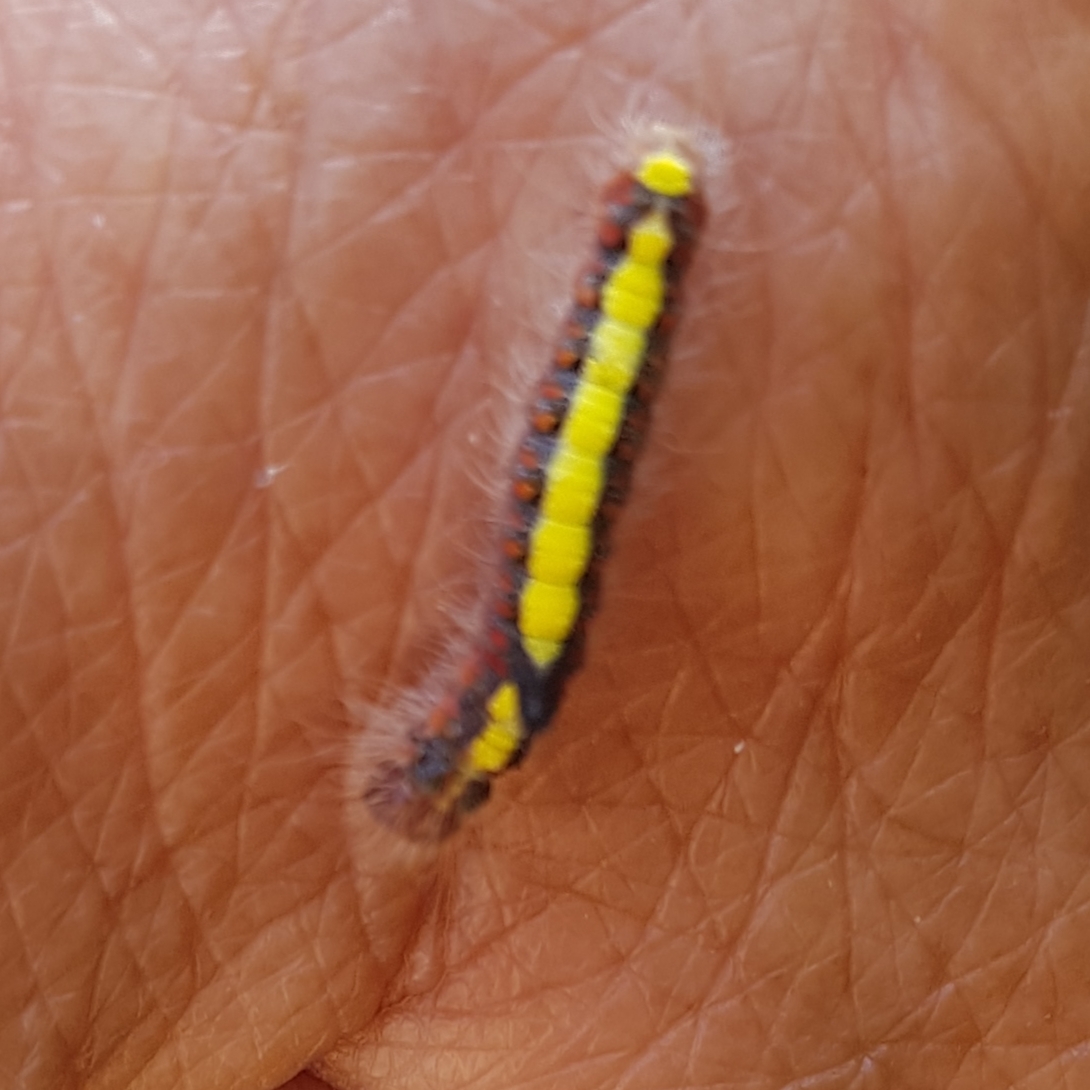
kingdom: Animalia
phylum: Arthropoda
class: Insecta
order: Lepidoptera
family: Noctuidae
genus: Acronicta
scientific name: Acronicta psi
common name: Grey dagger
